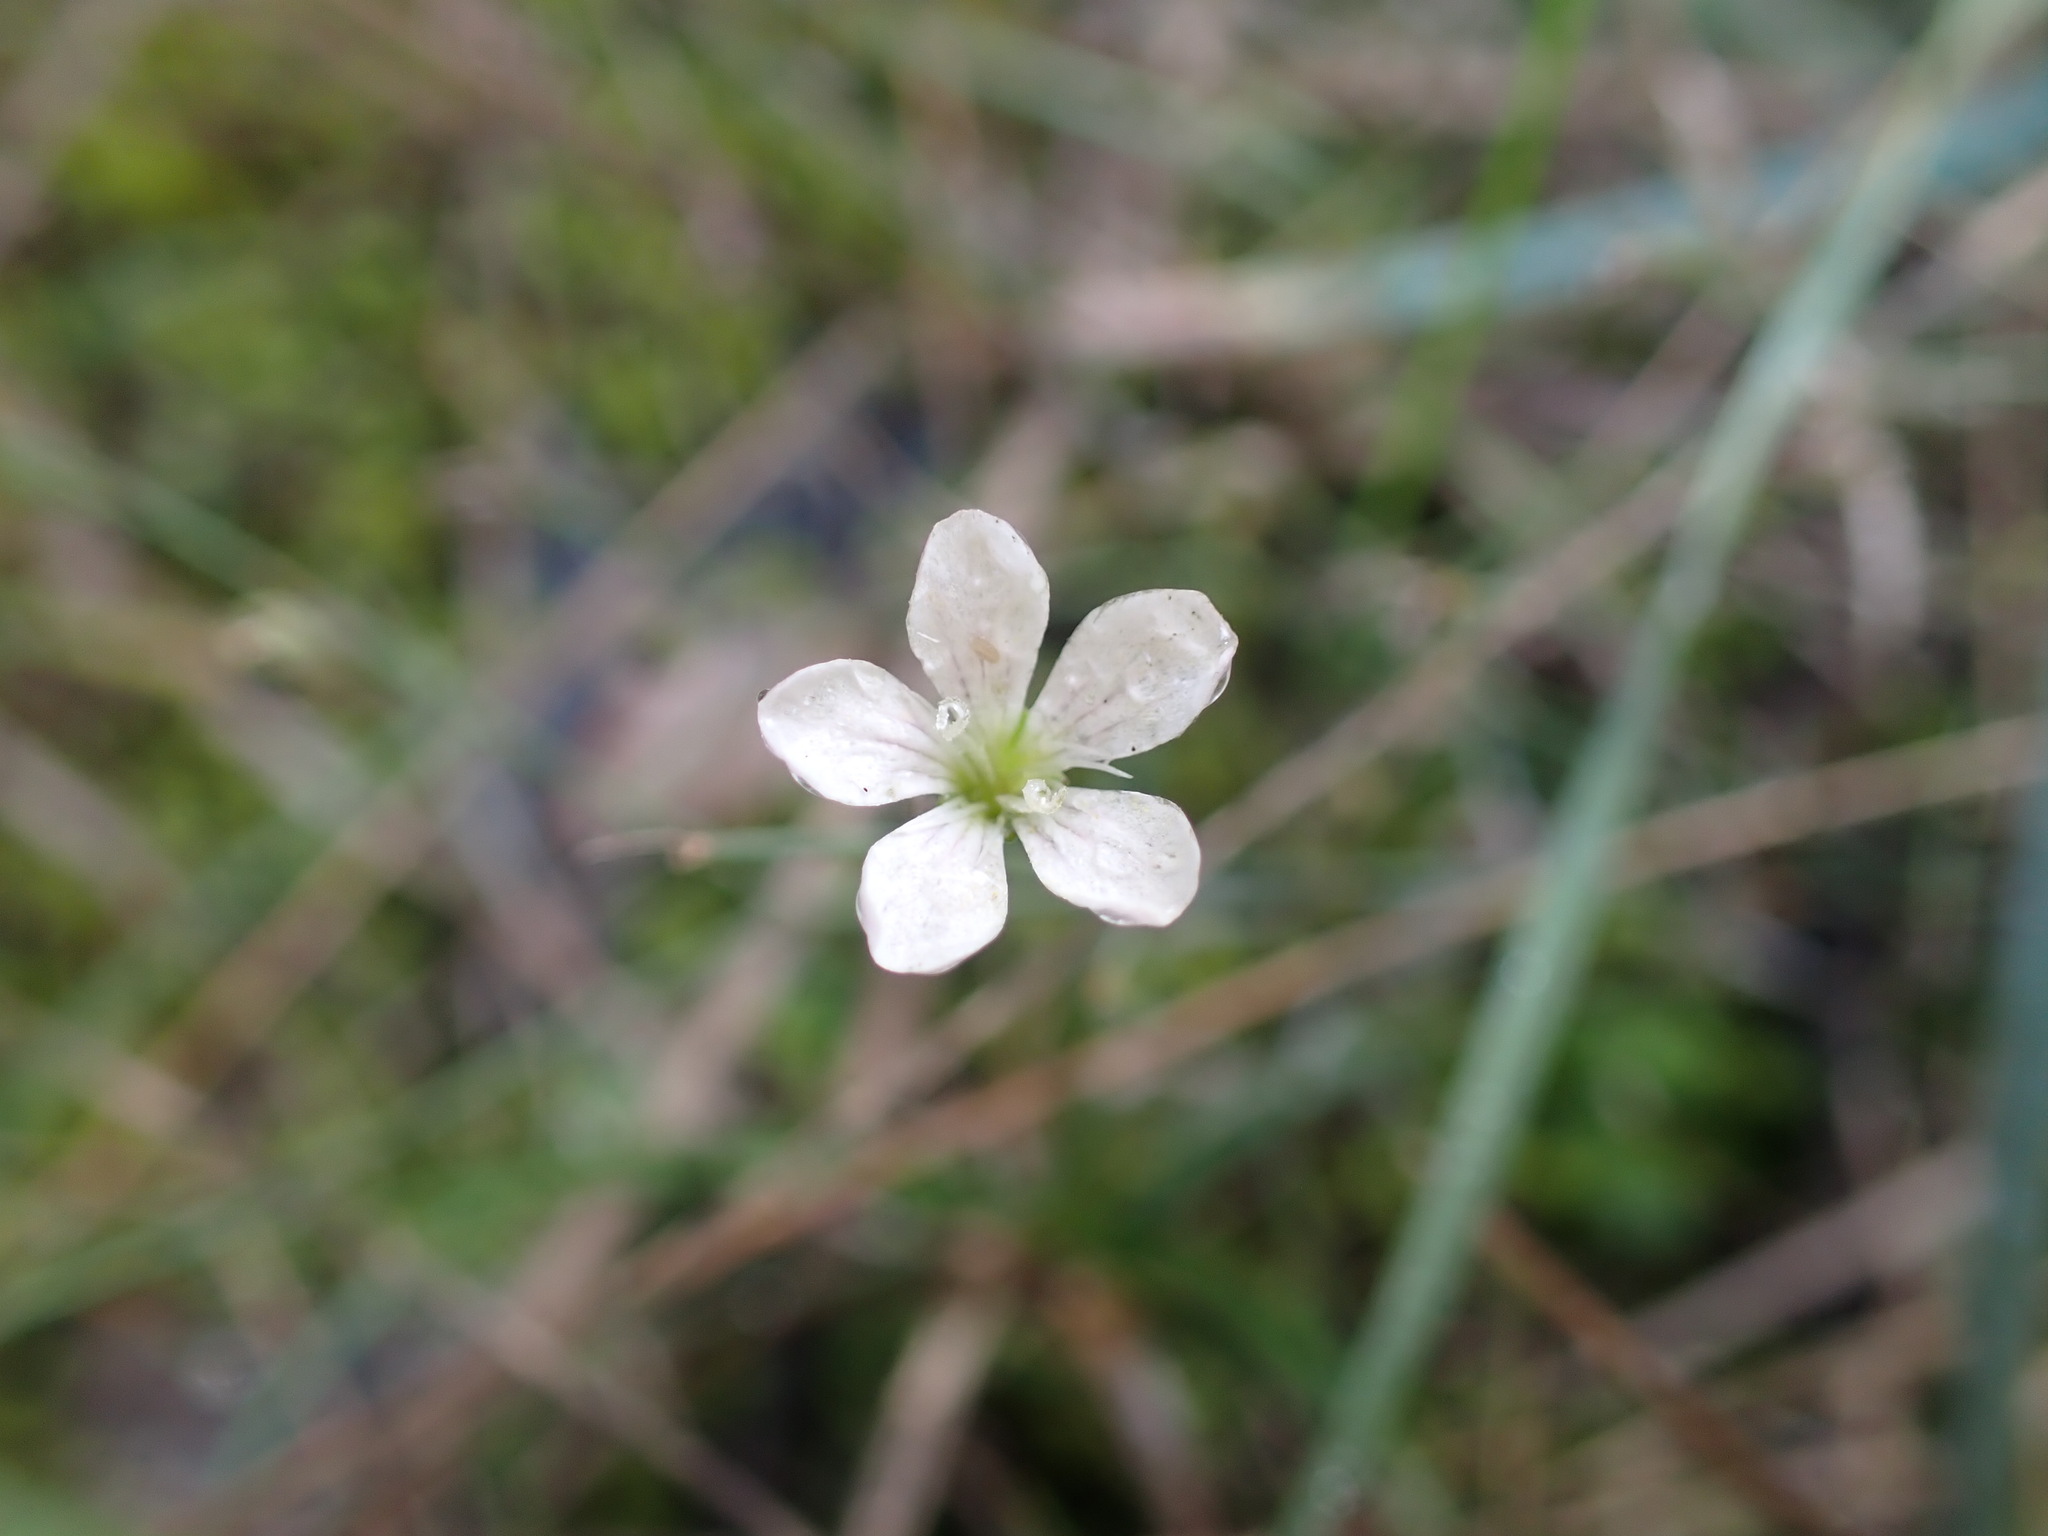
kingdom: Plantae
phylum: Tracheophyta
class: Magnoliopsida
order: Caryophyllales
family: Caryophyllaceae
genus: Petrorhagia
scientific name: Petrorhagia saxifraga
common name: Tunicflower
